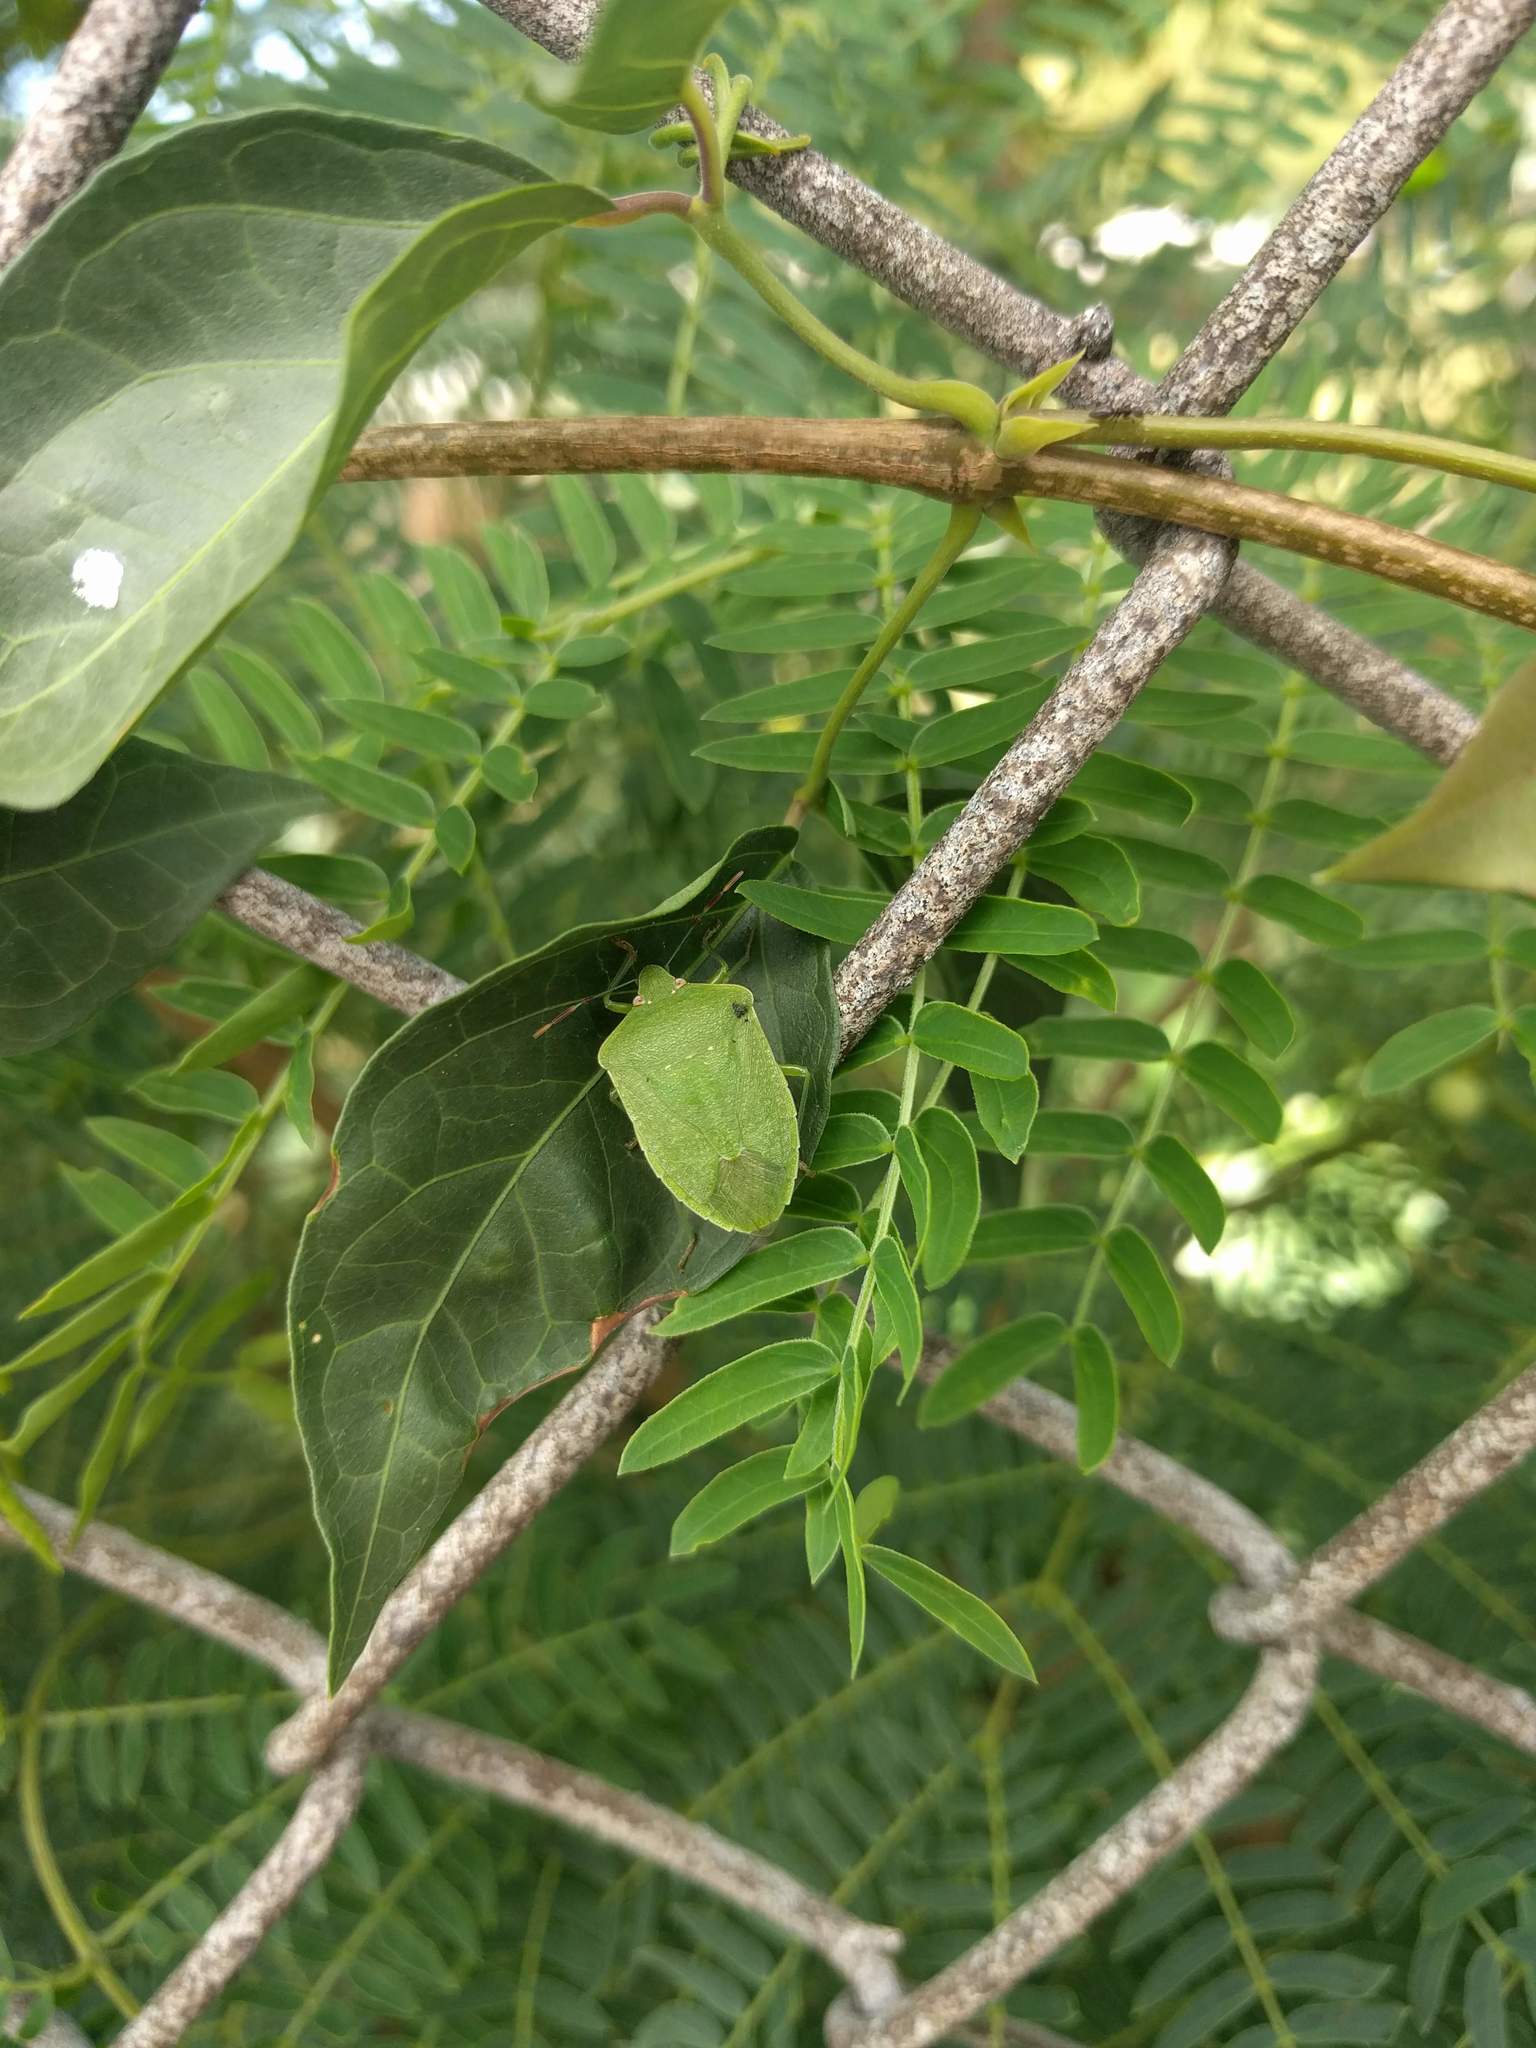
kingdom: Animalia
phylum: Arthropoda
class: Insecta
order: Hemiptera
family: Pentatomidae
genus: Nezara
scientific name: Nezara viridula
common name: Southern green stink bug
